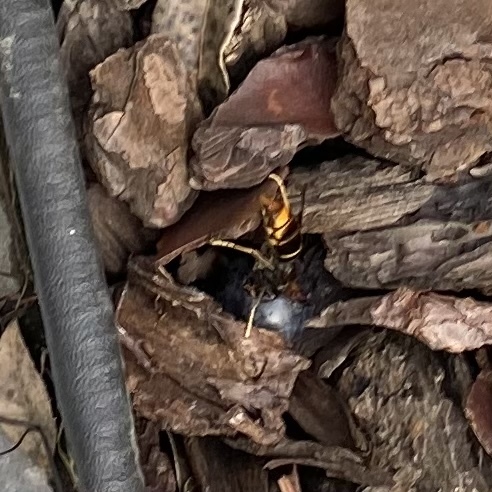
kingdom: Animalia
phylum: Arthropoda
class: Insecta
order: Hymenoptera
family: Vespidae
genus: Vespa
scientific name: Vespa velutina
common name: Asian hornet
